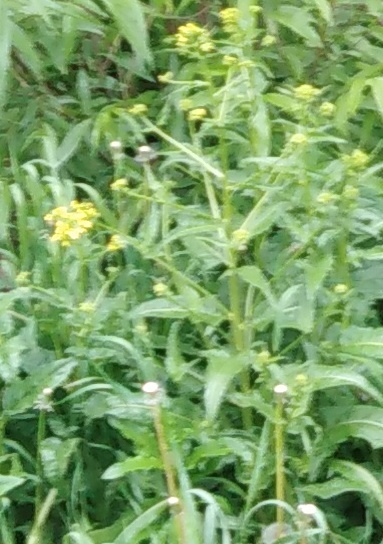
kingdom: Plantae
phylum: Tracheophyta
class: Magnoliopsida
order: Brassicales
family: Brassicaceae
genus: Bunias
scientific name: Bunias orientalis
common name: Warty-cabbage
